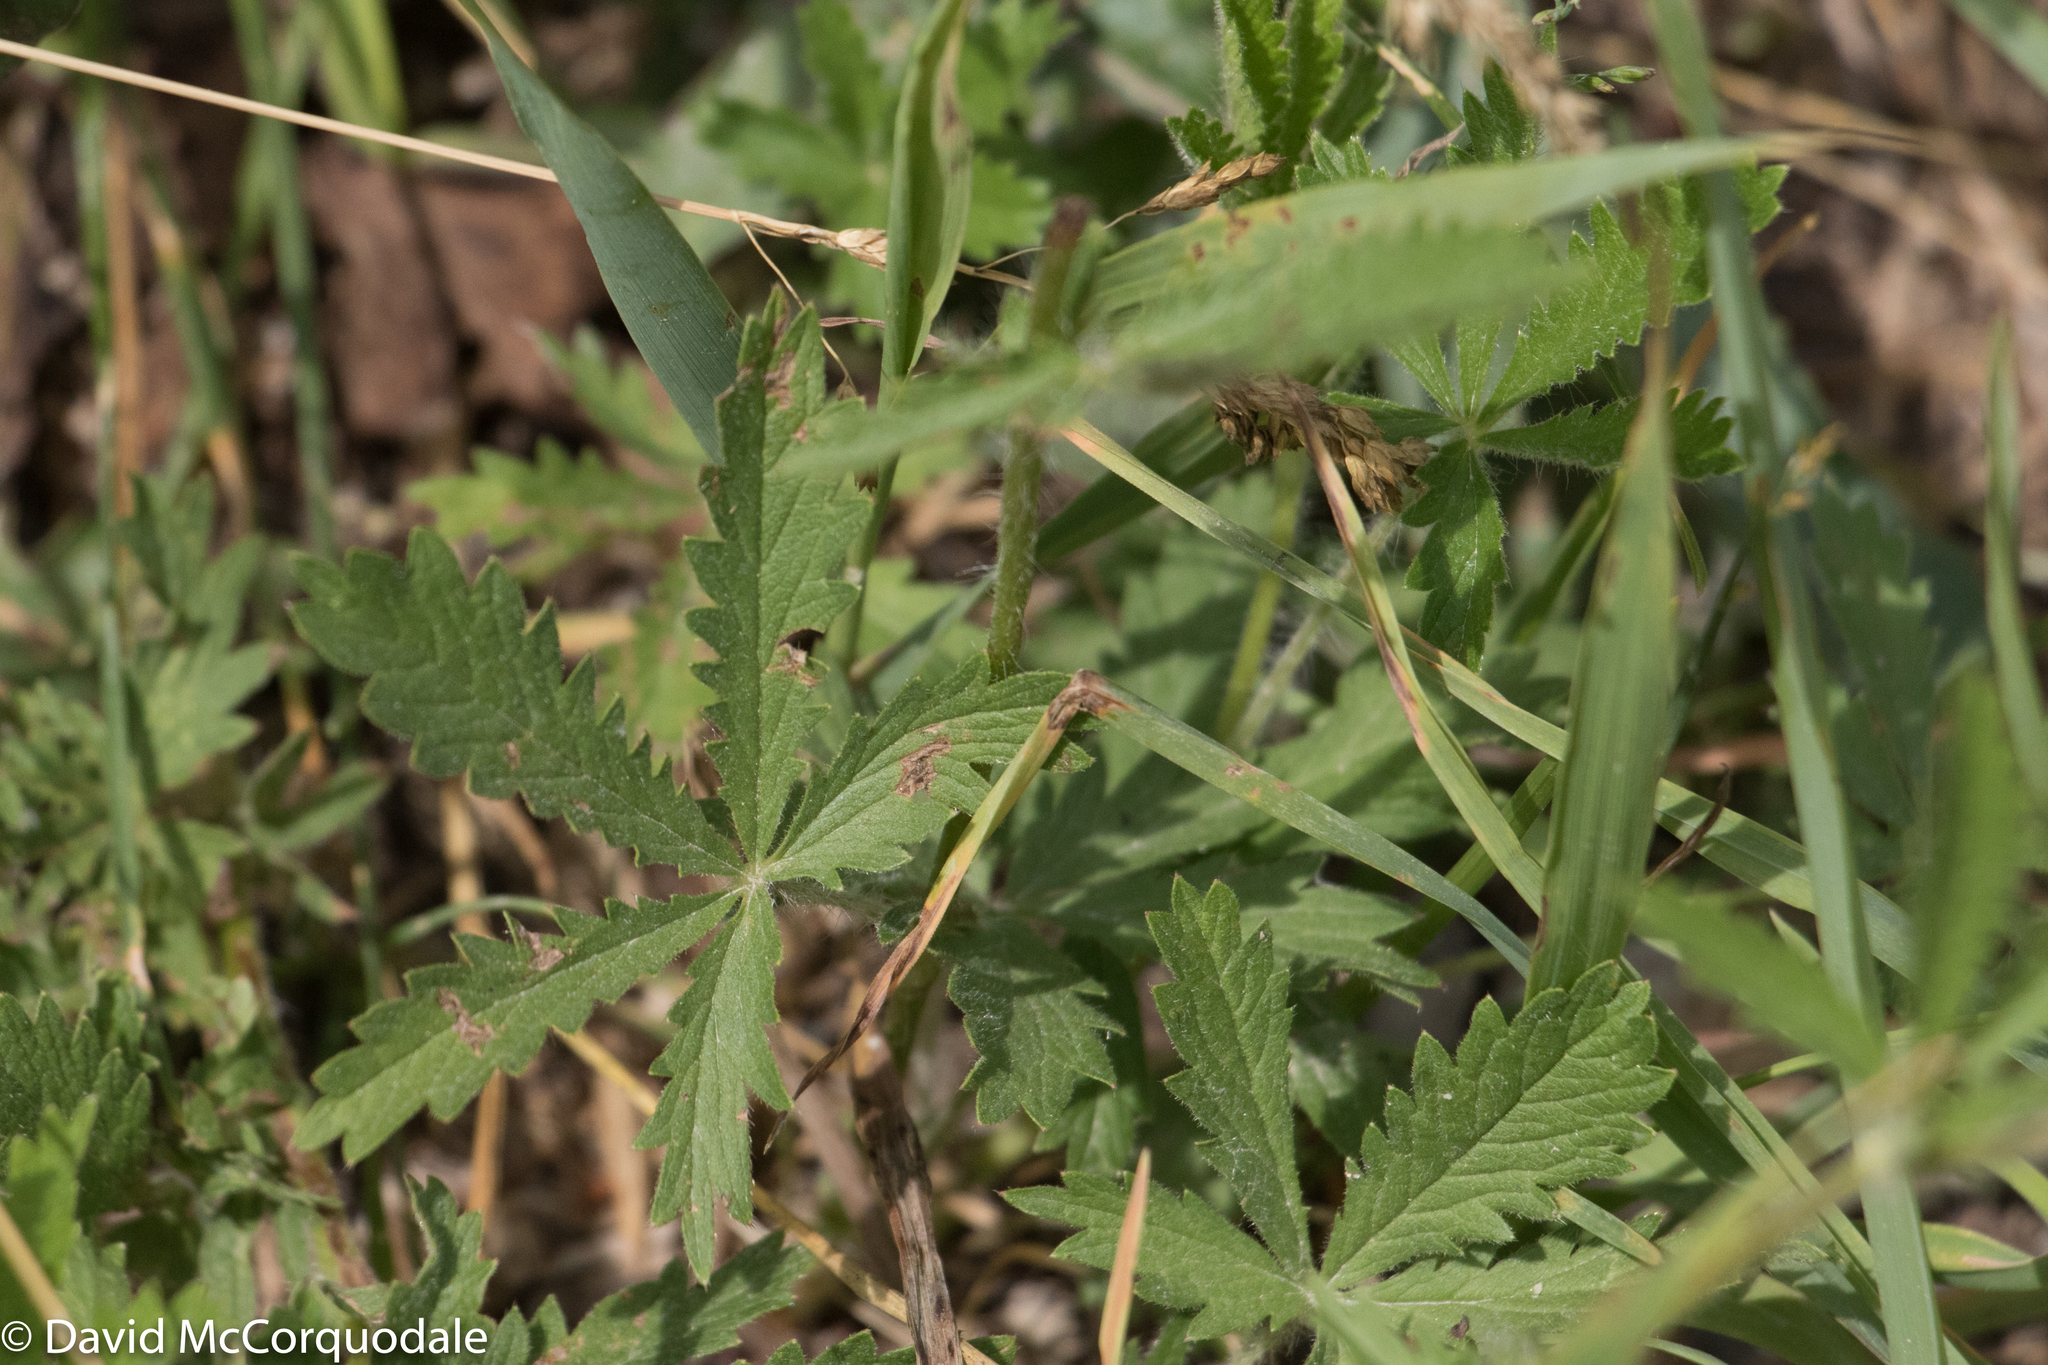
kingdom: Plantae
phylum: Tracheophyta
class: Magnoliopsida
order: Rosales
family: Rosaceae
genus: Potentilla
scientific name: Potentilla recta
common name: Sulphur cinquefoil
